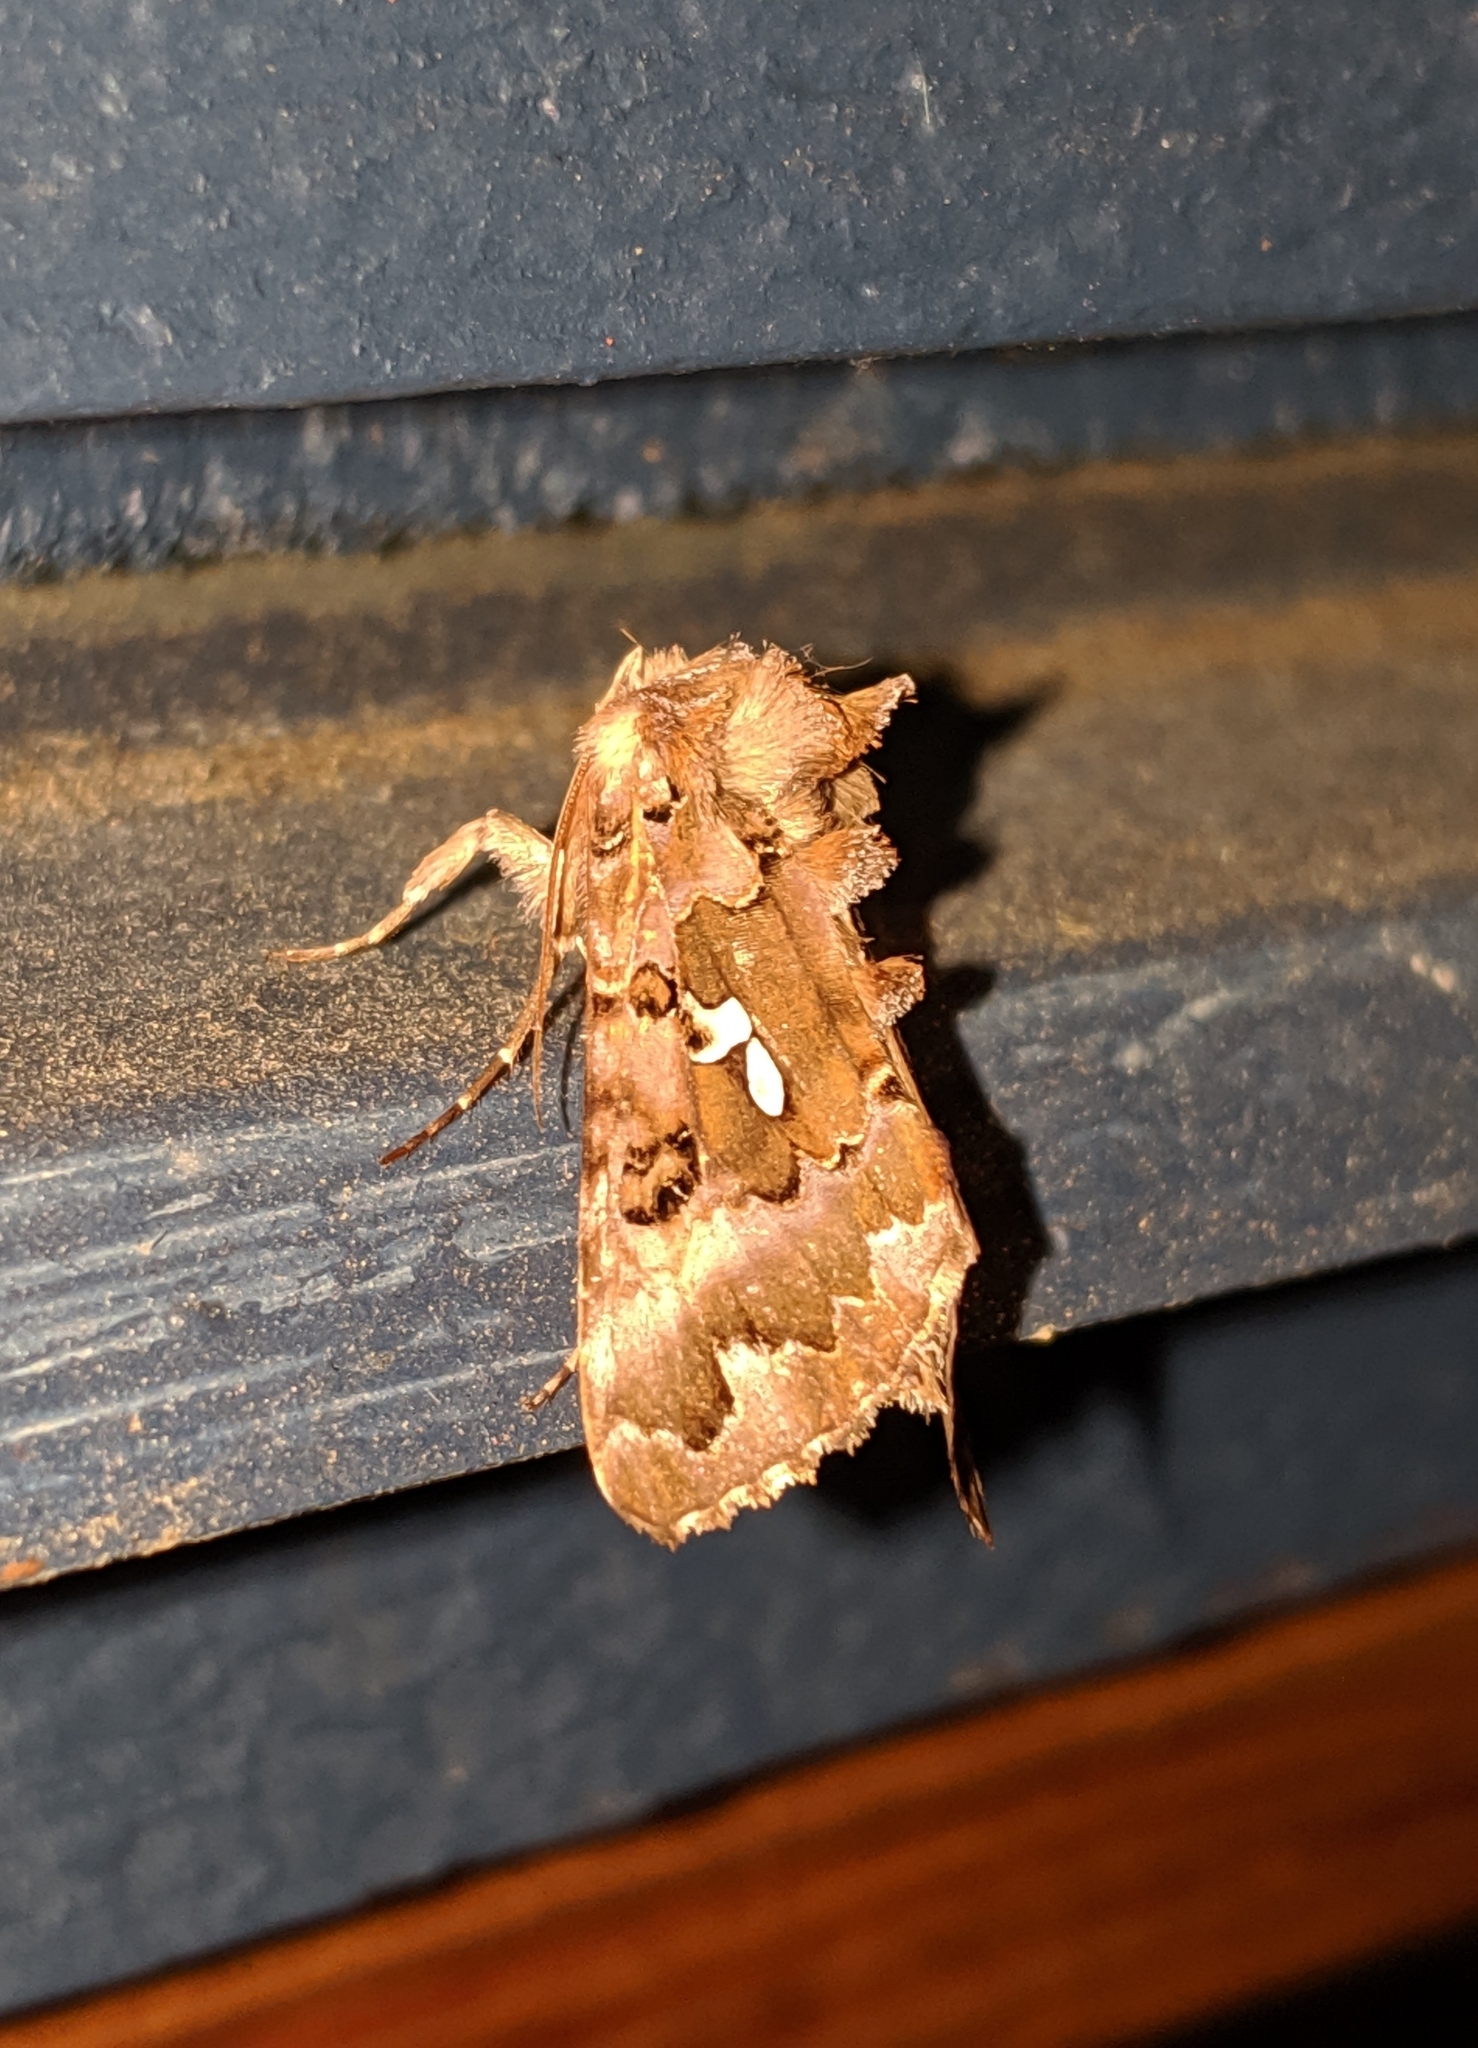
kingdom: Animalia
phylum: Arthropoda
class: Insecta
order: Lepidoptera
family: Noctuidae
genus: Autographa
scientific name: Autographa corusca
